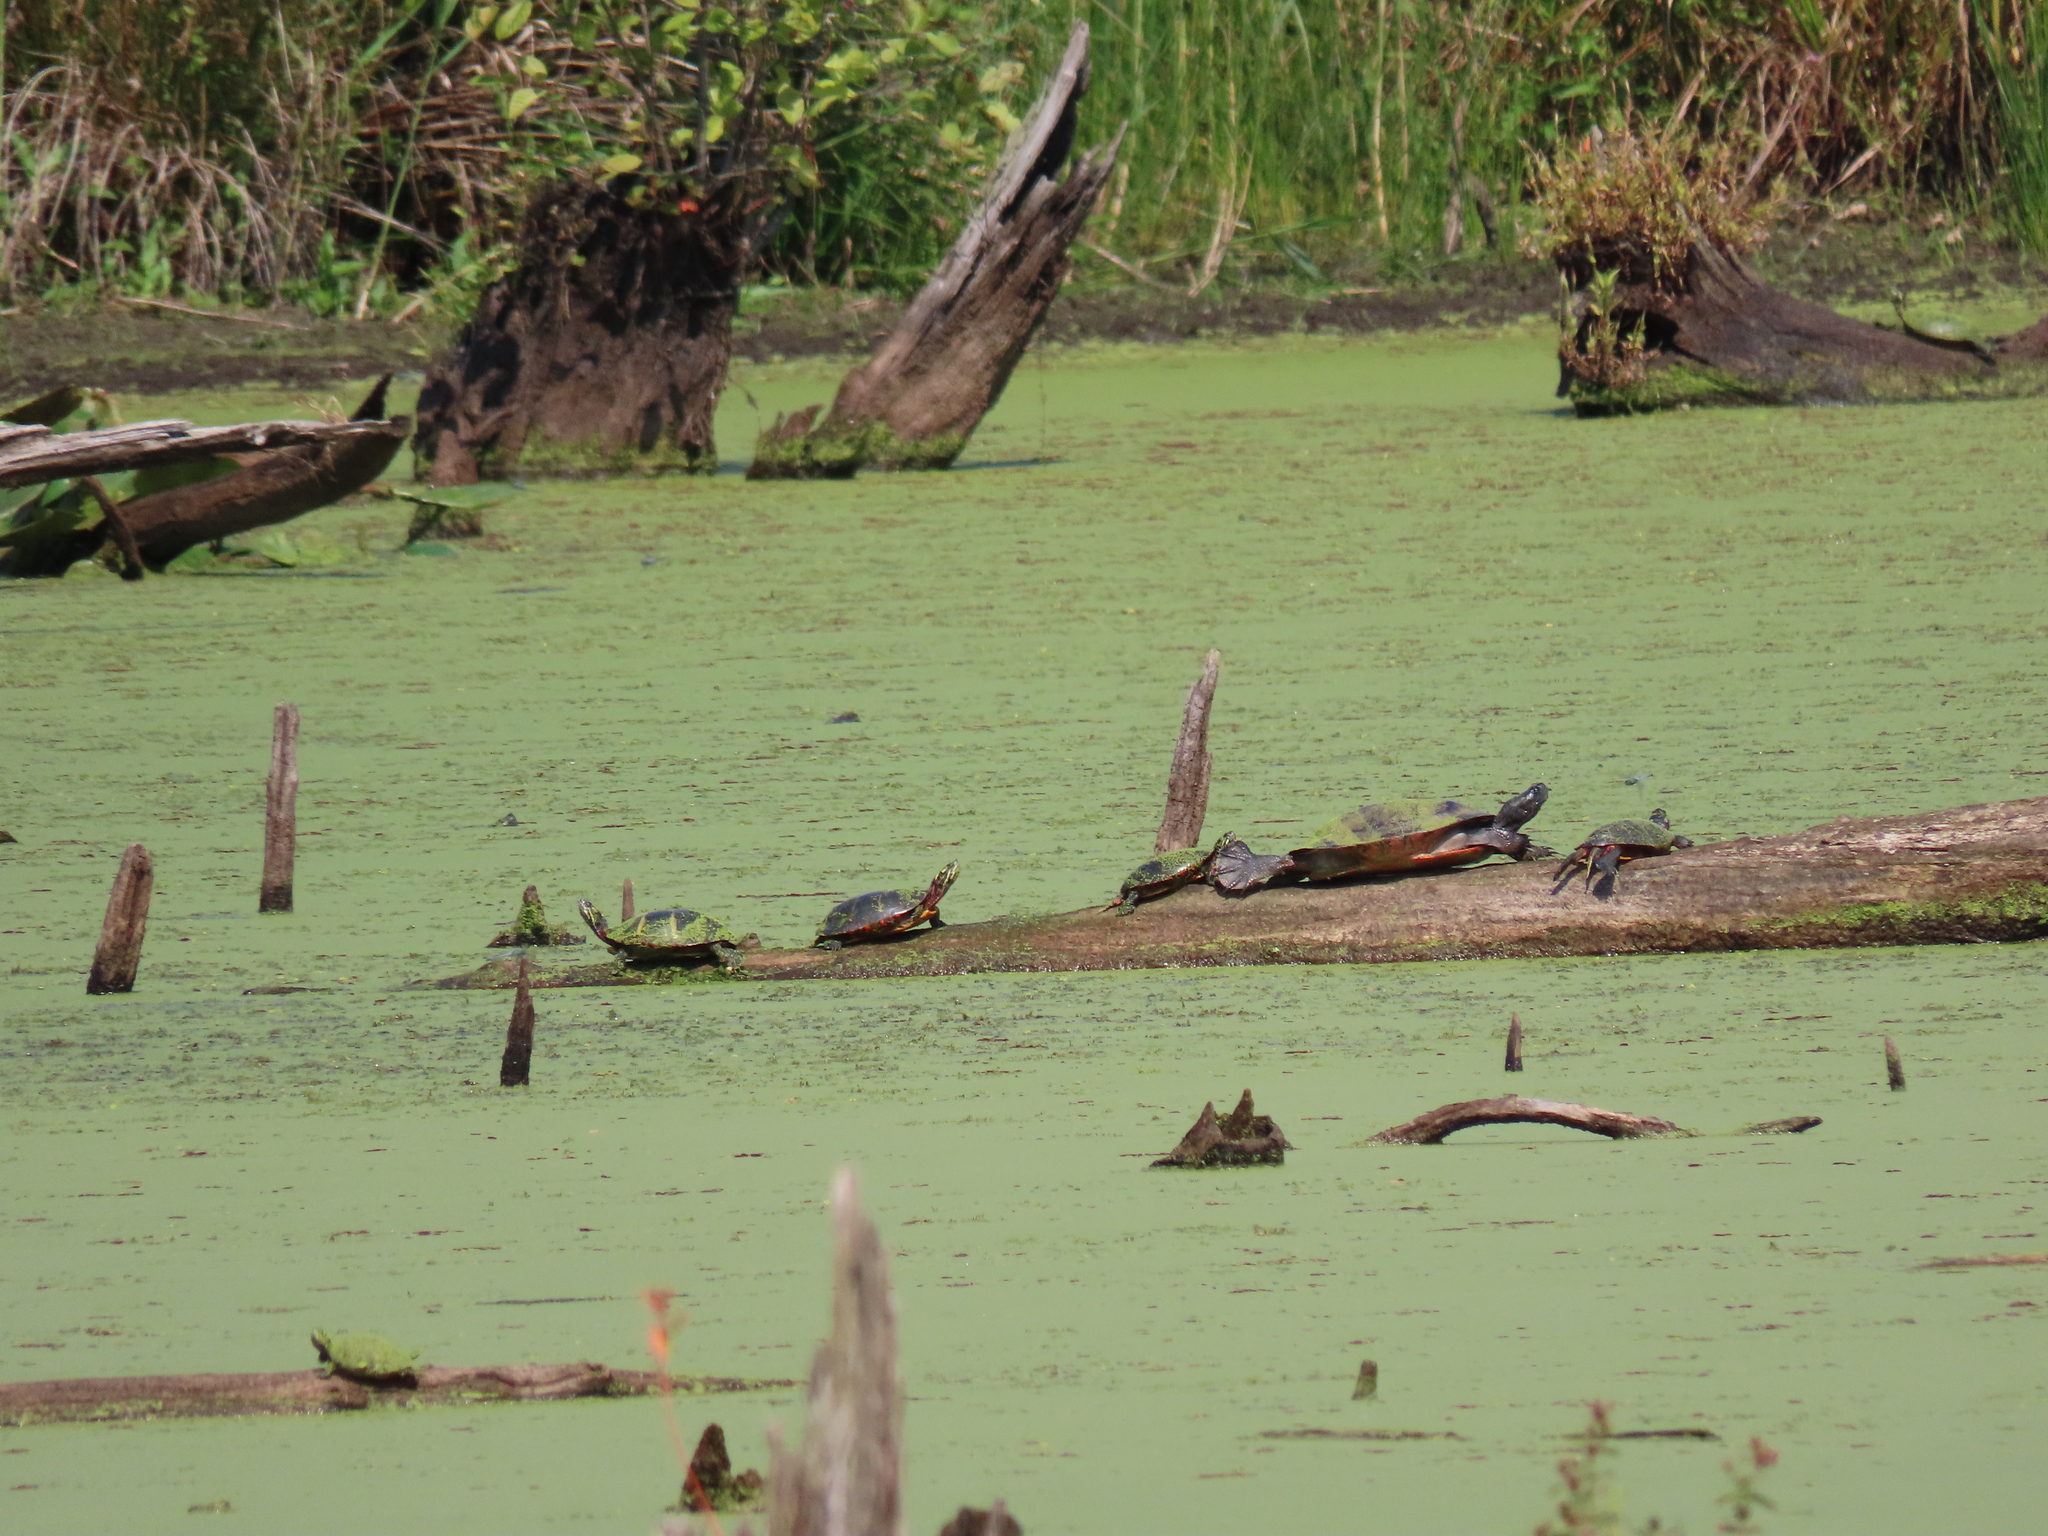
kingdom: Animalia
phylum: Chordata
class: Testudines
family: Emydidae
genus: Chrysemys
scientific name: Chrysemys picta
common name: Painted turtle
